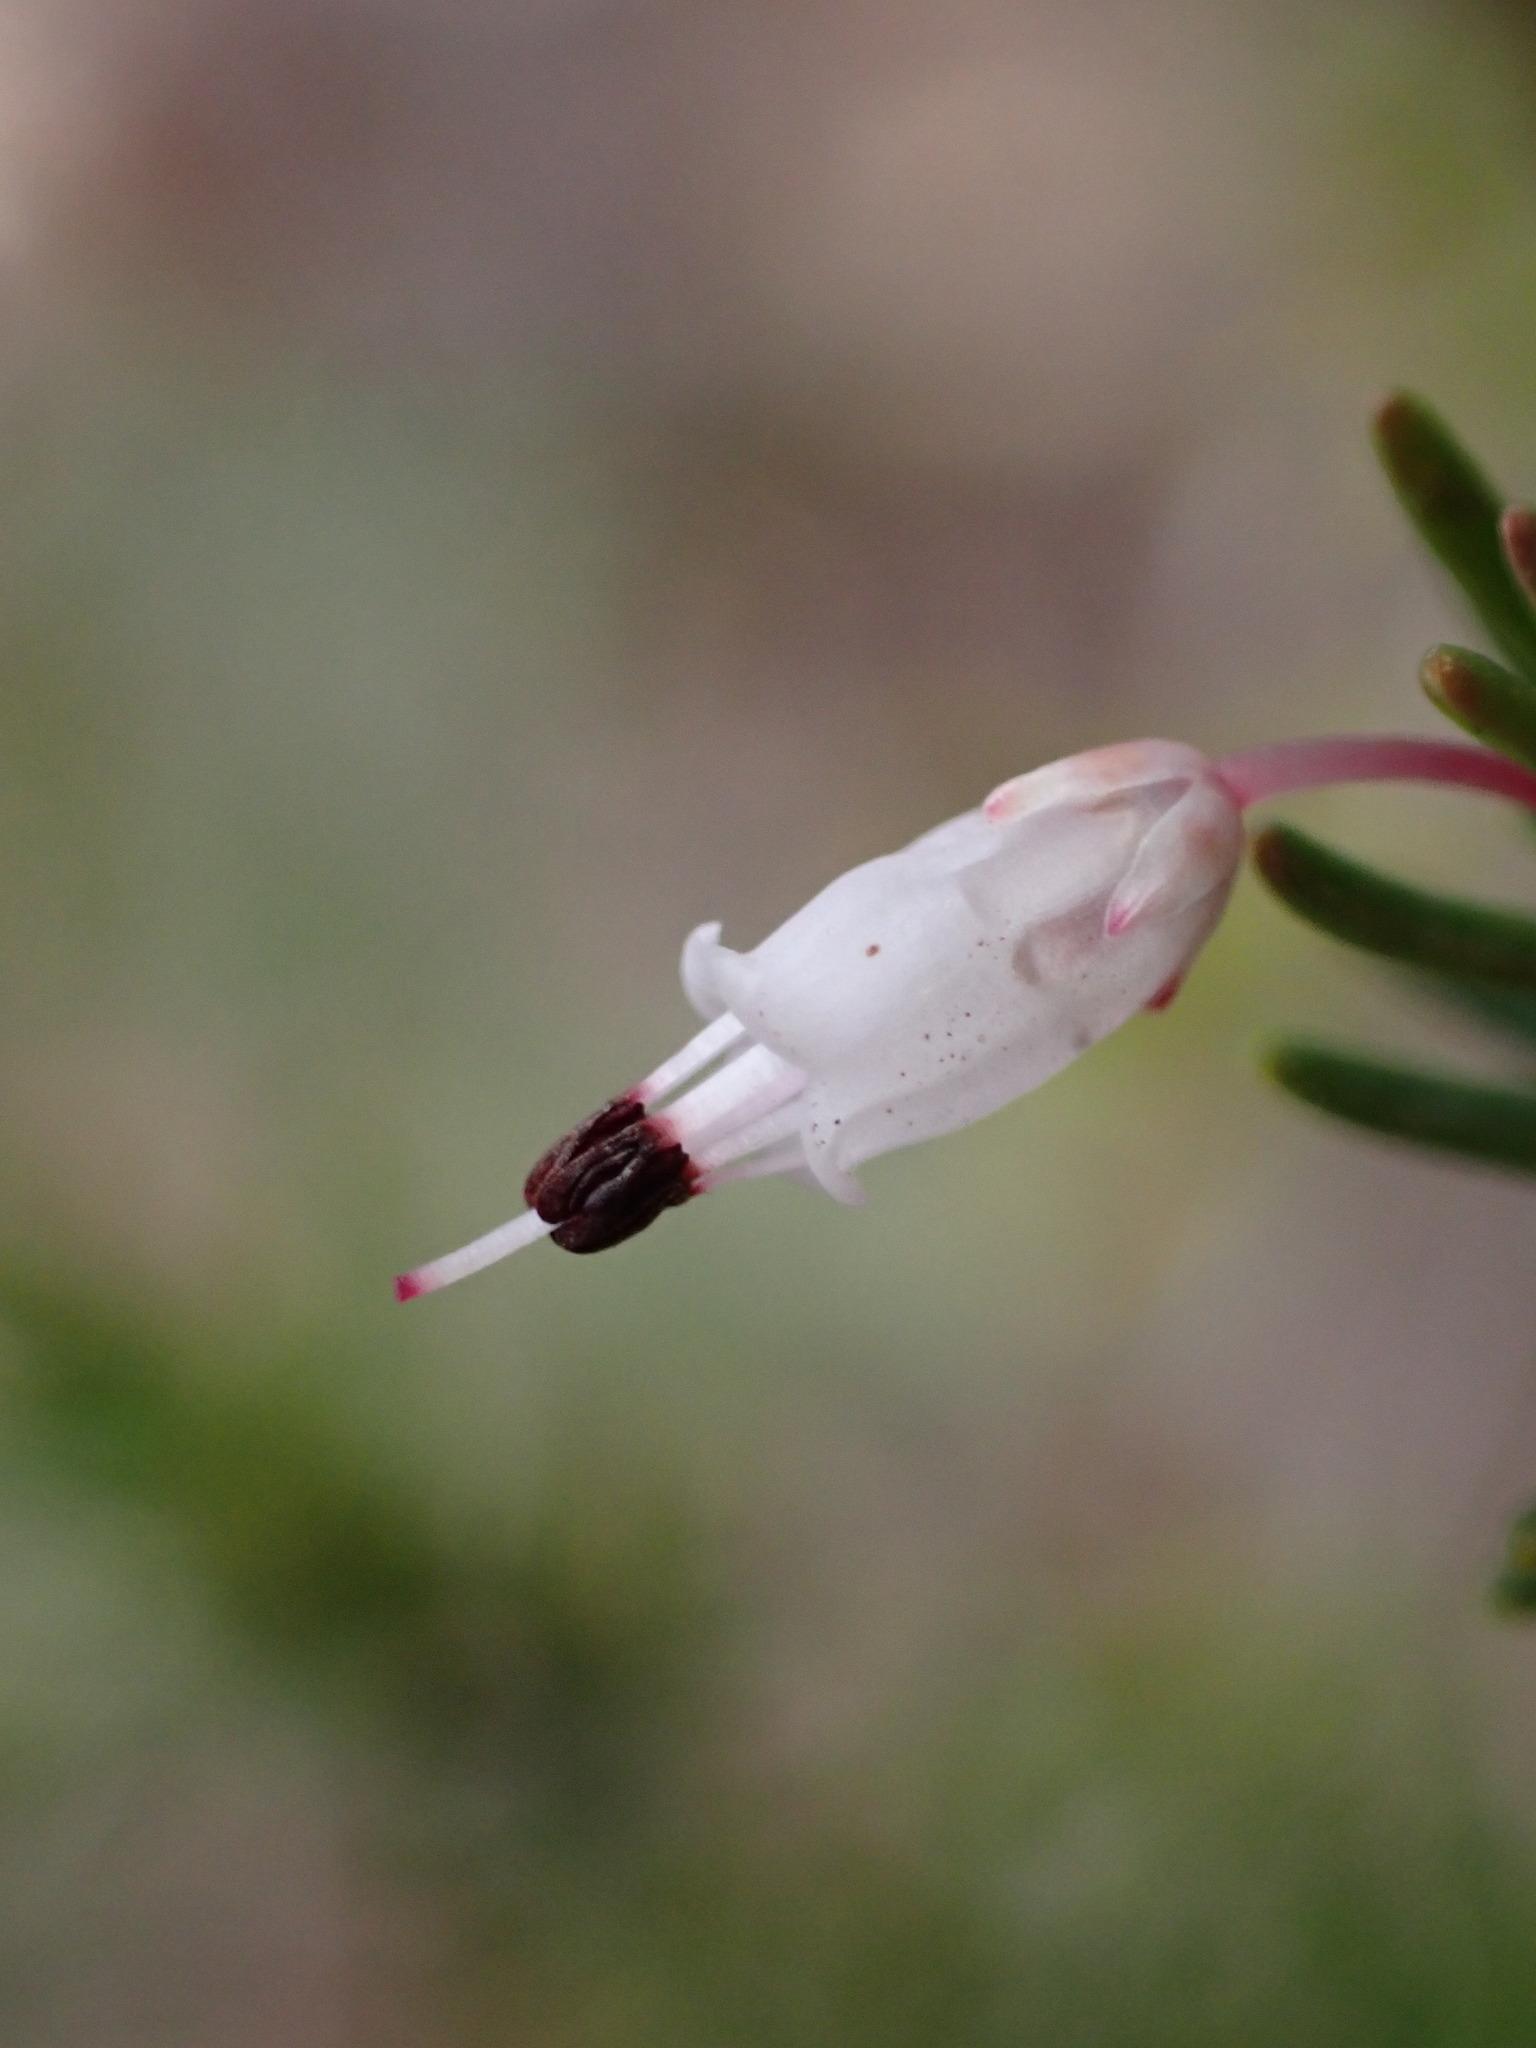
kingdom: Plantae
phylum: Tracheophyta
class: Magnoliopsida
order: Ericales
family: Ericaceae
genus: Erica
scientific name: Erica multiflora
